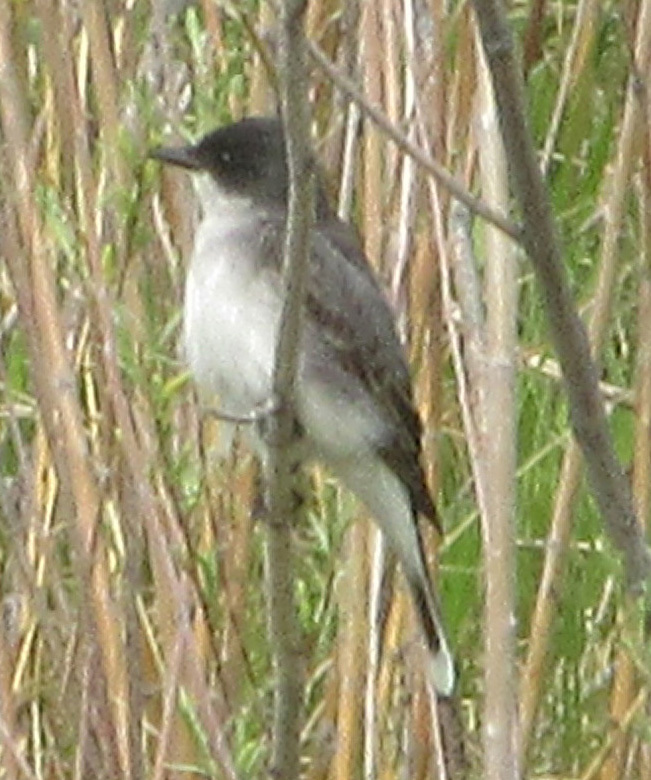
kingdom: Animalia
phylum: Chordata
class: Aves
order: Passeriformes
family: Tyrannidae
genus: Tyrannus
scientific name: Tyrannus tyrannus
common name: Eastern kingbird
